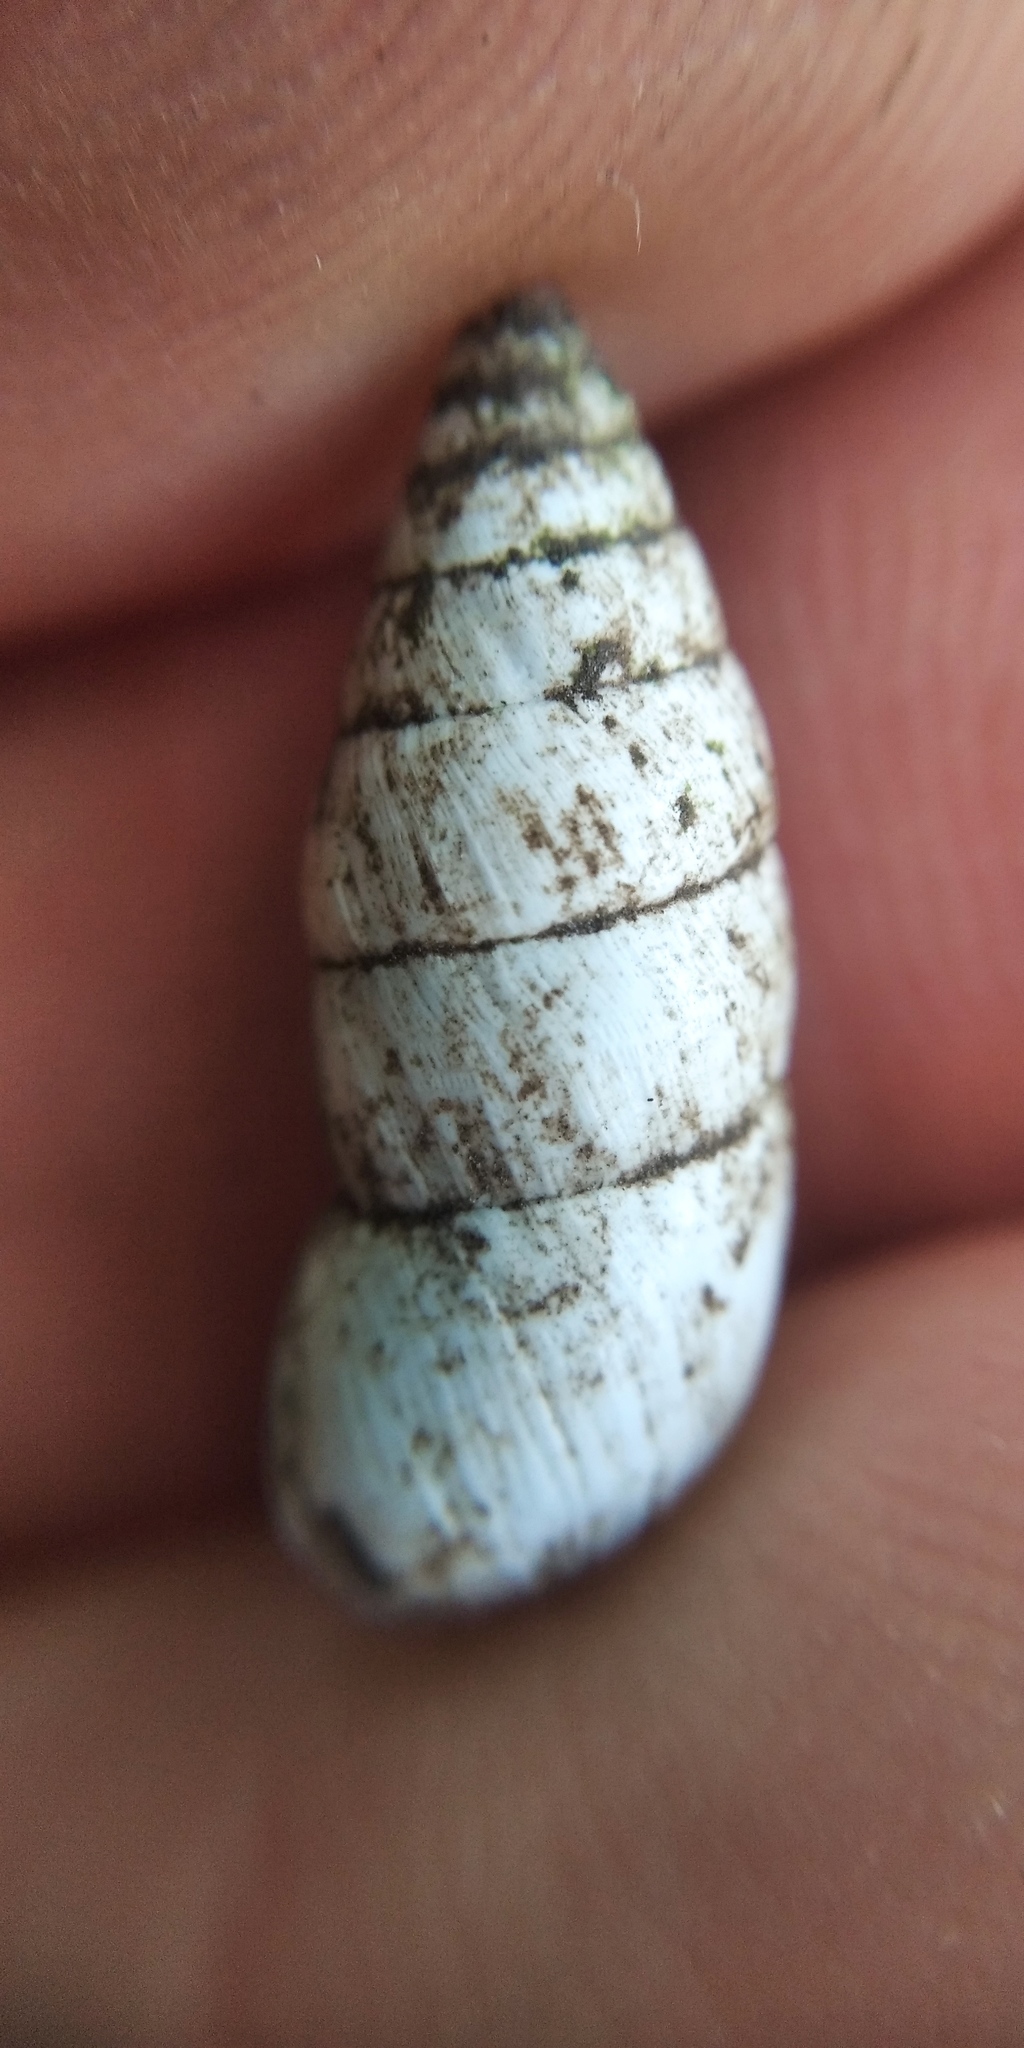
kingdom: Animalia
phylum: Mollusca
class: Gastropoda
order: Stylommatophora
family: Enidae
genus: Brephulopsis
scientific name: Brephulopsis cylindrica
